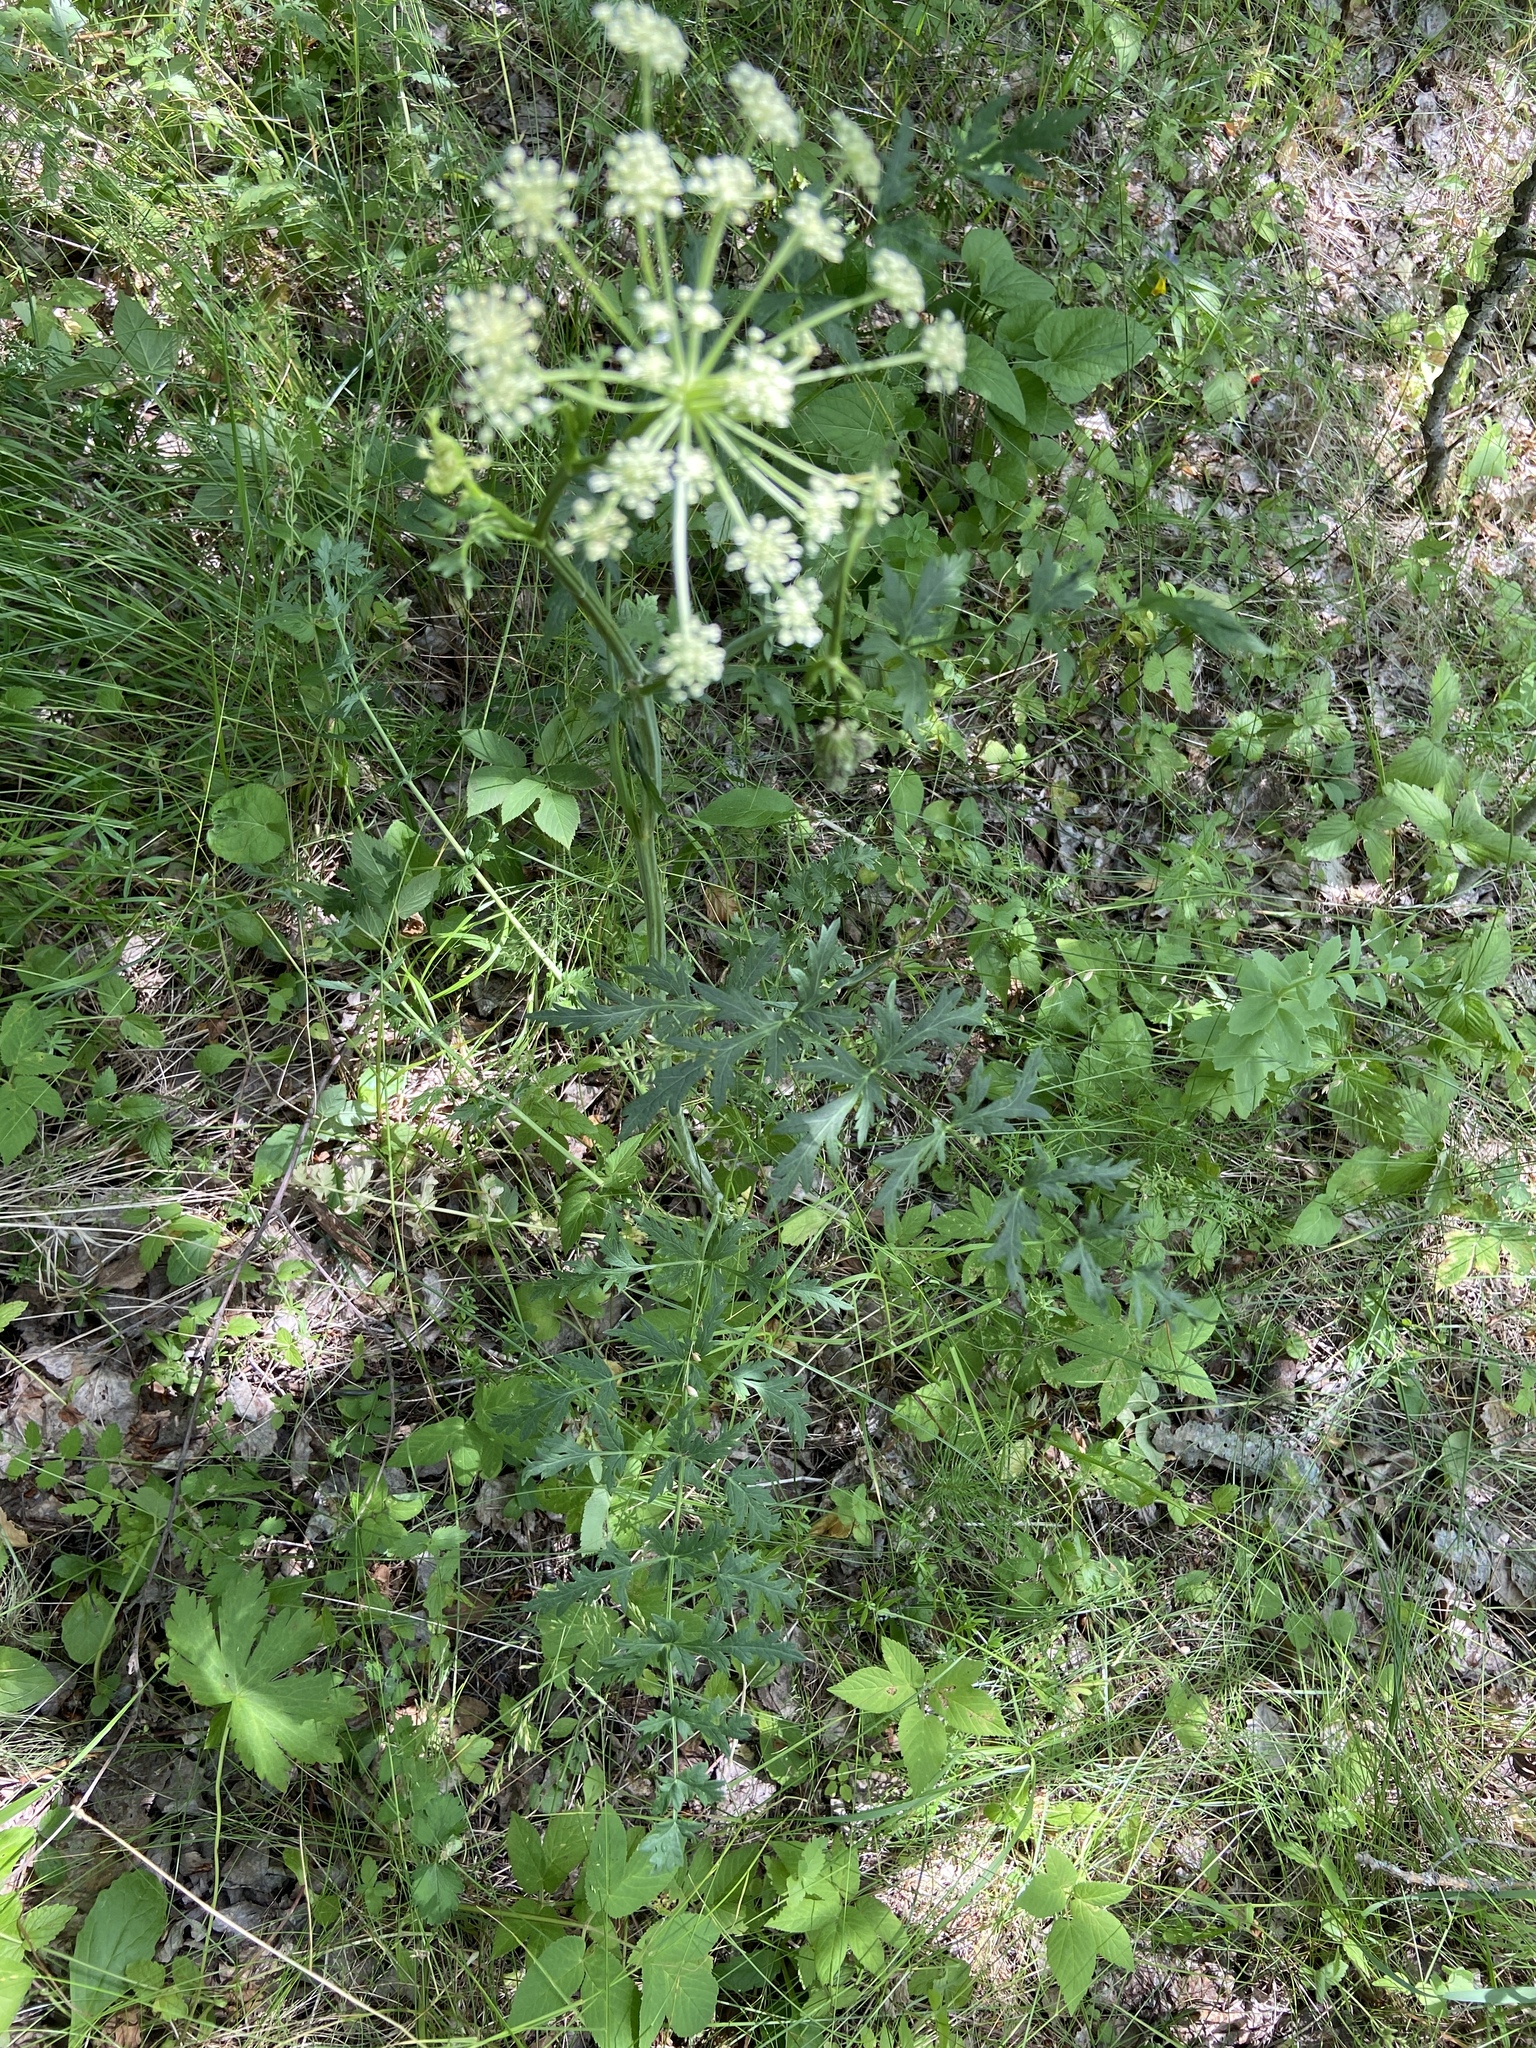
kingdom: Plantae
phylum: Tracheophyta
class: Magnoliopsida
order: Apiales
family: Apiaceae
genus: Seseli
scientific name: Seseli libanotis
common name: Mooncarrot
